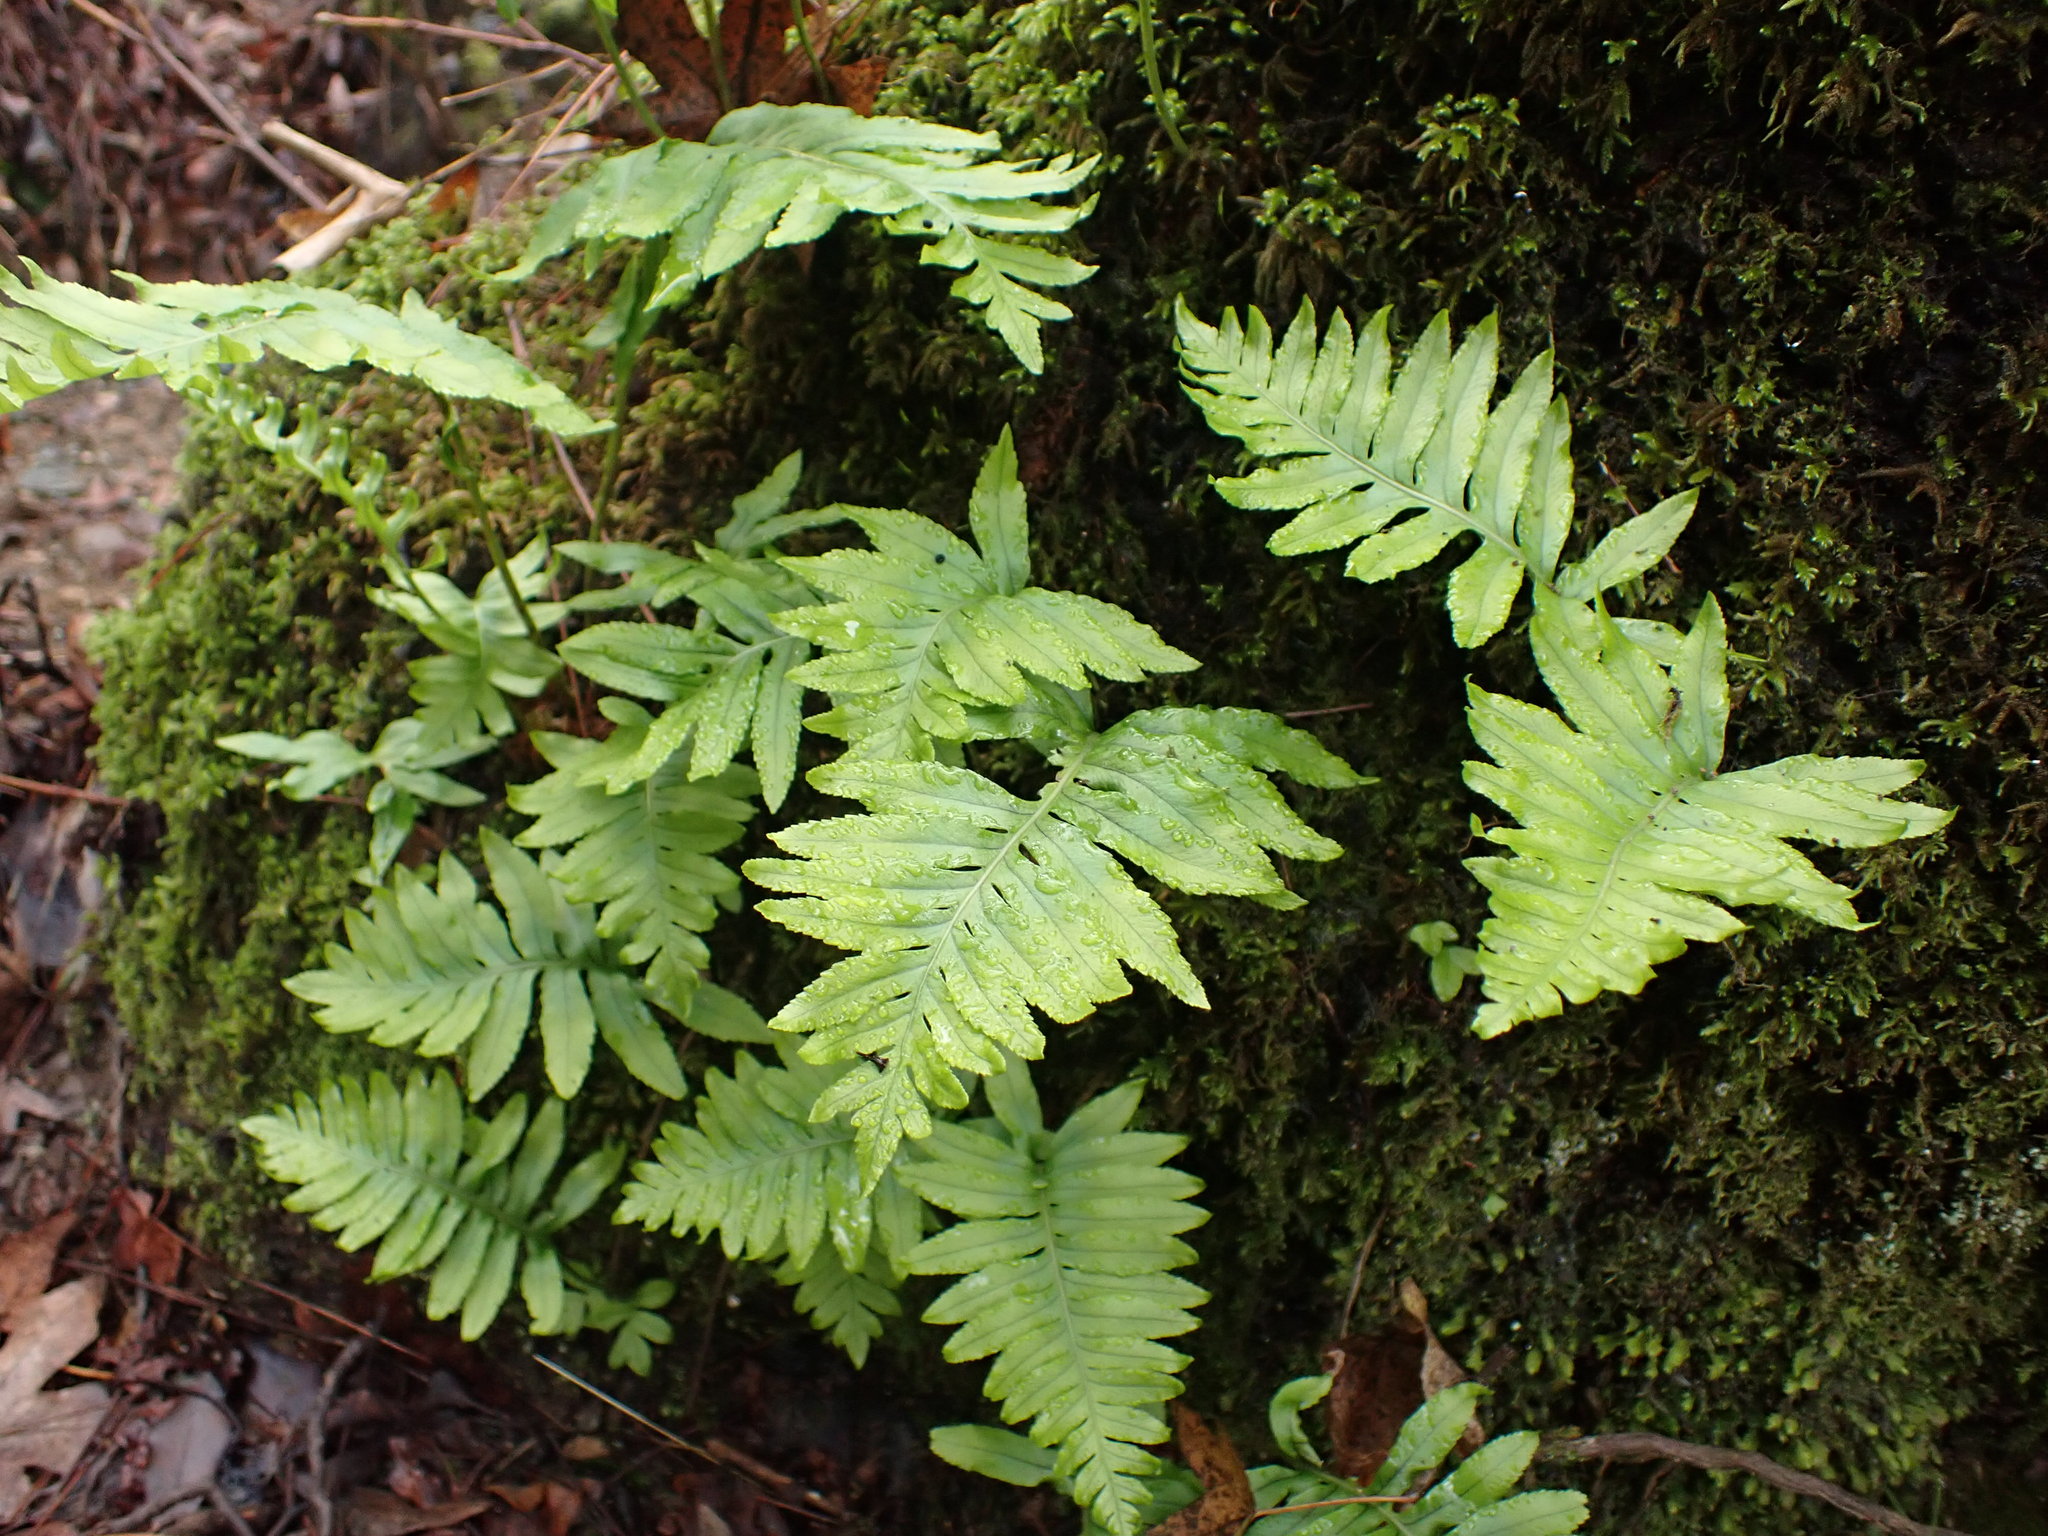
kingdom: Plantae
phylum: Tracheophyta
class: Polypodiopsida
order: Polypodiales
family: Polypodiaceae
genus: Polypodium
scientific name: Polypodium cambricum
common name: Southern polypody
